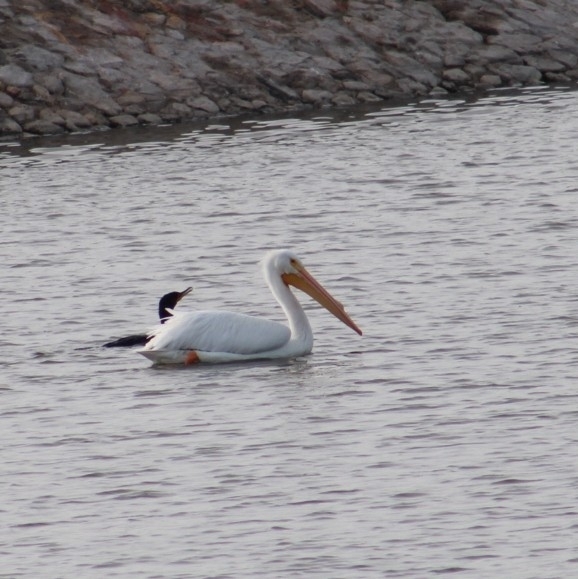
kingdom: Animalia
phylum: Chordata
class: Aves
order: Pelecaniformes
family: Pelecanidae
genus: Pelecanus
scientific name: Pelecanus erythrorhynchos
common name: American white pelican
